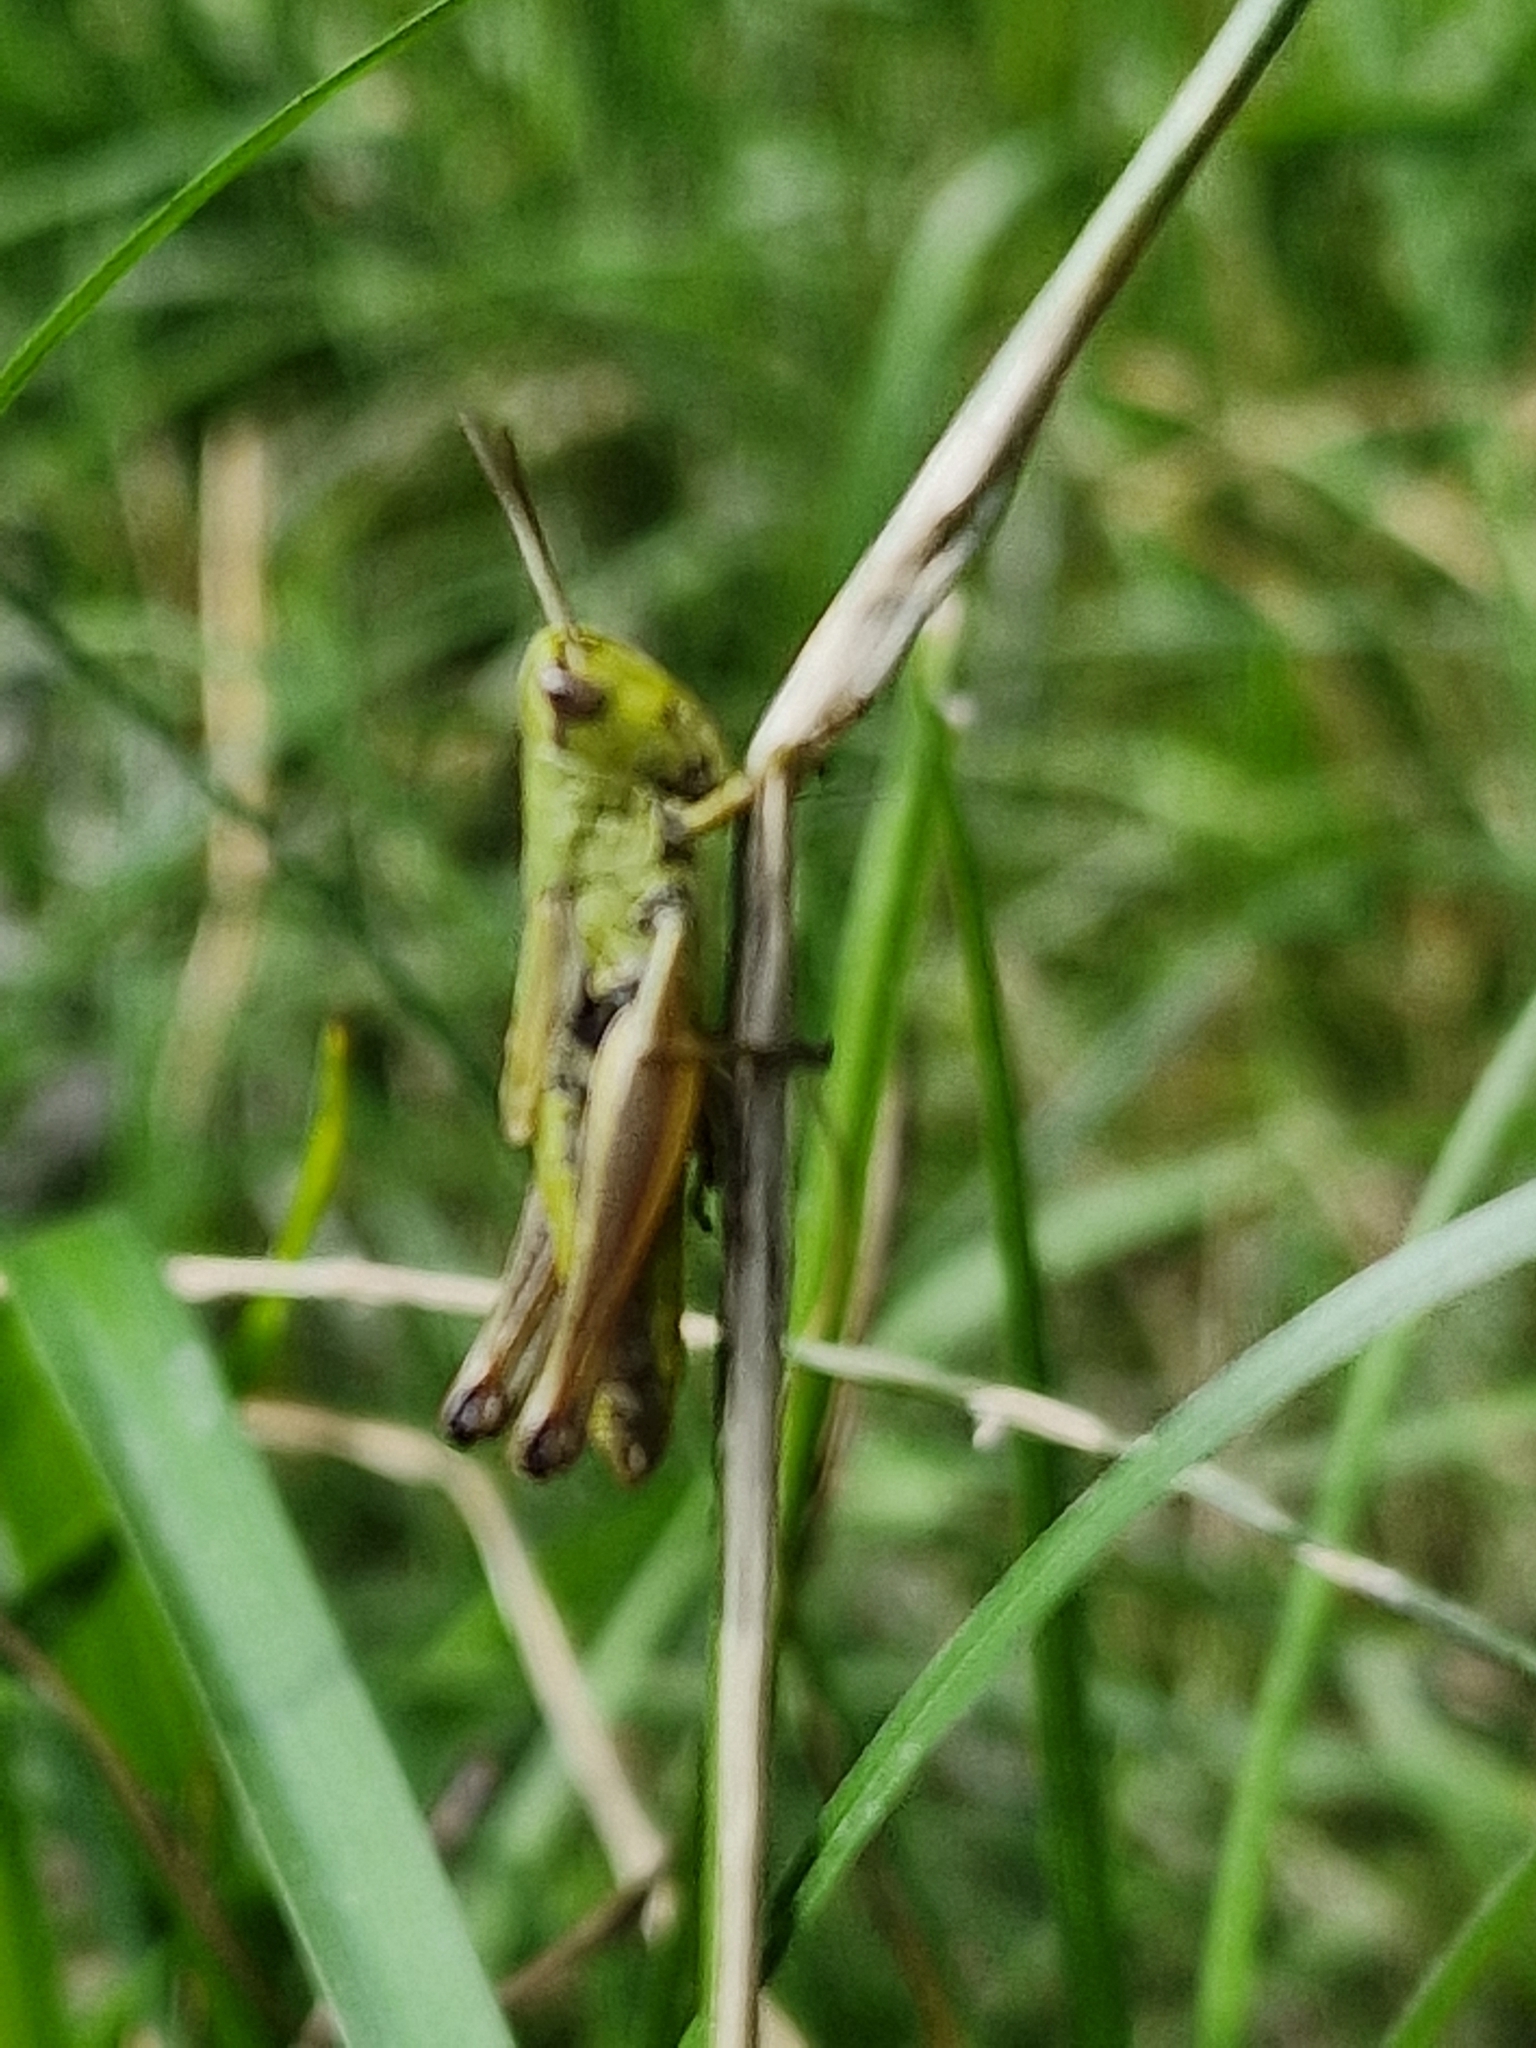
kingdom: Animalia
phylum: Arthropoda
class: Insecta
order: Orthoptera
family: Acrididae
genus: Pseudochorthippus
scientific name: Pseudochorthippus parallelus
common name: Meadow grasshopper
